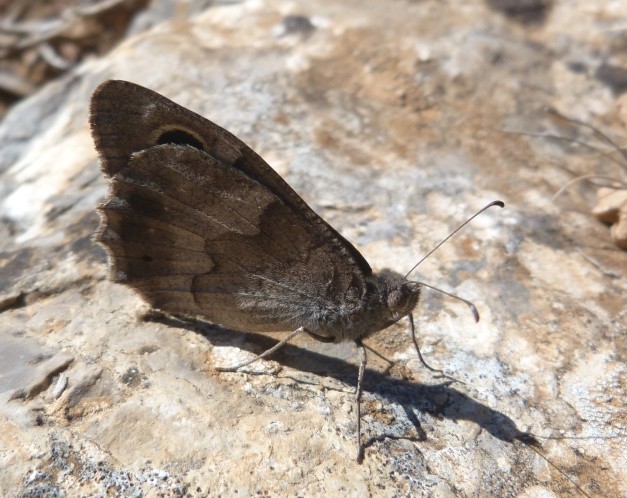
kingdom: Animalia
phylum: Arthropoda
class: Insecta
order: Lepidoptera
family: Nymphalidae
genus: Hipparchia
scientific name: Hipparchia statilinus
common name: Tree grayling
